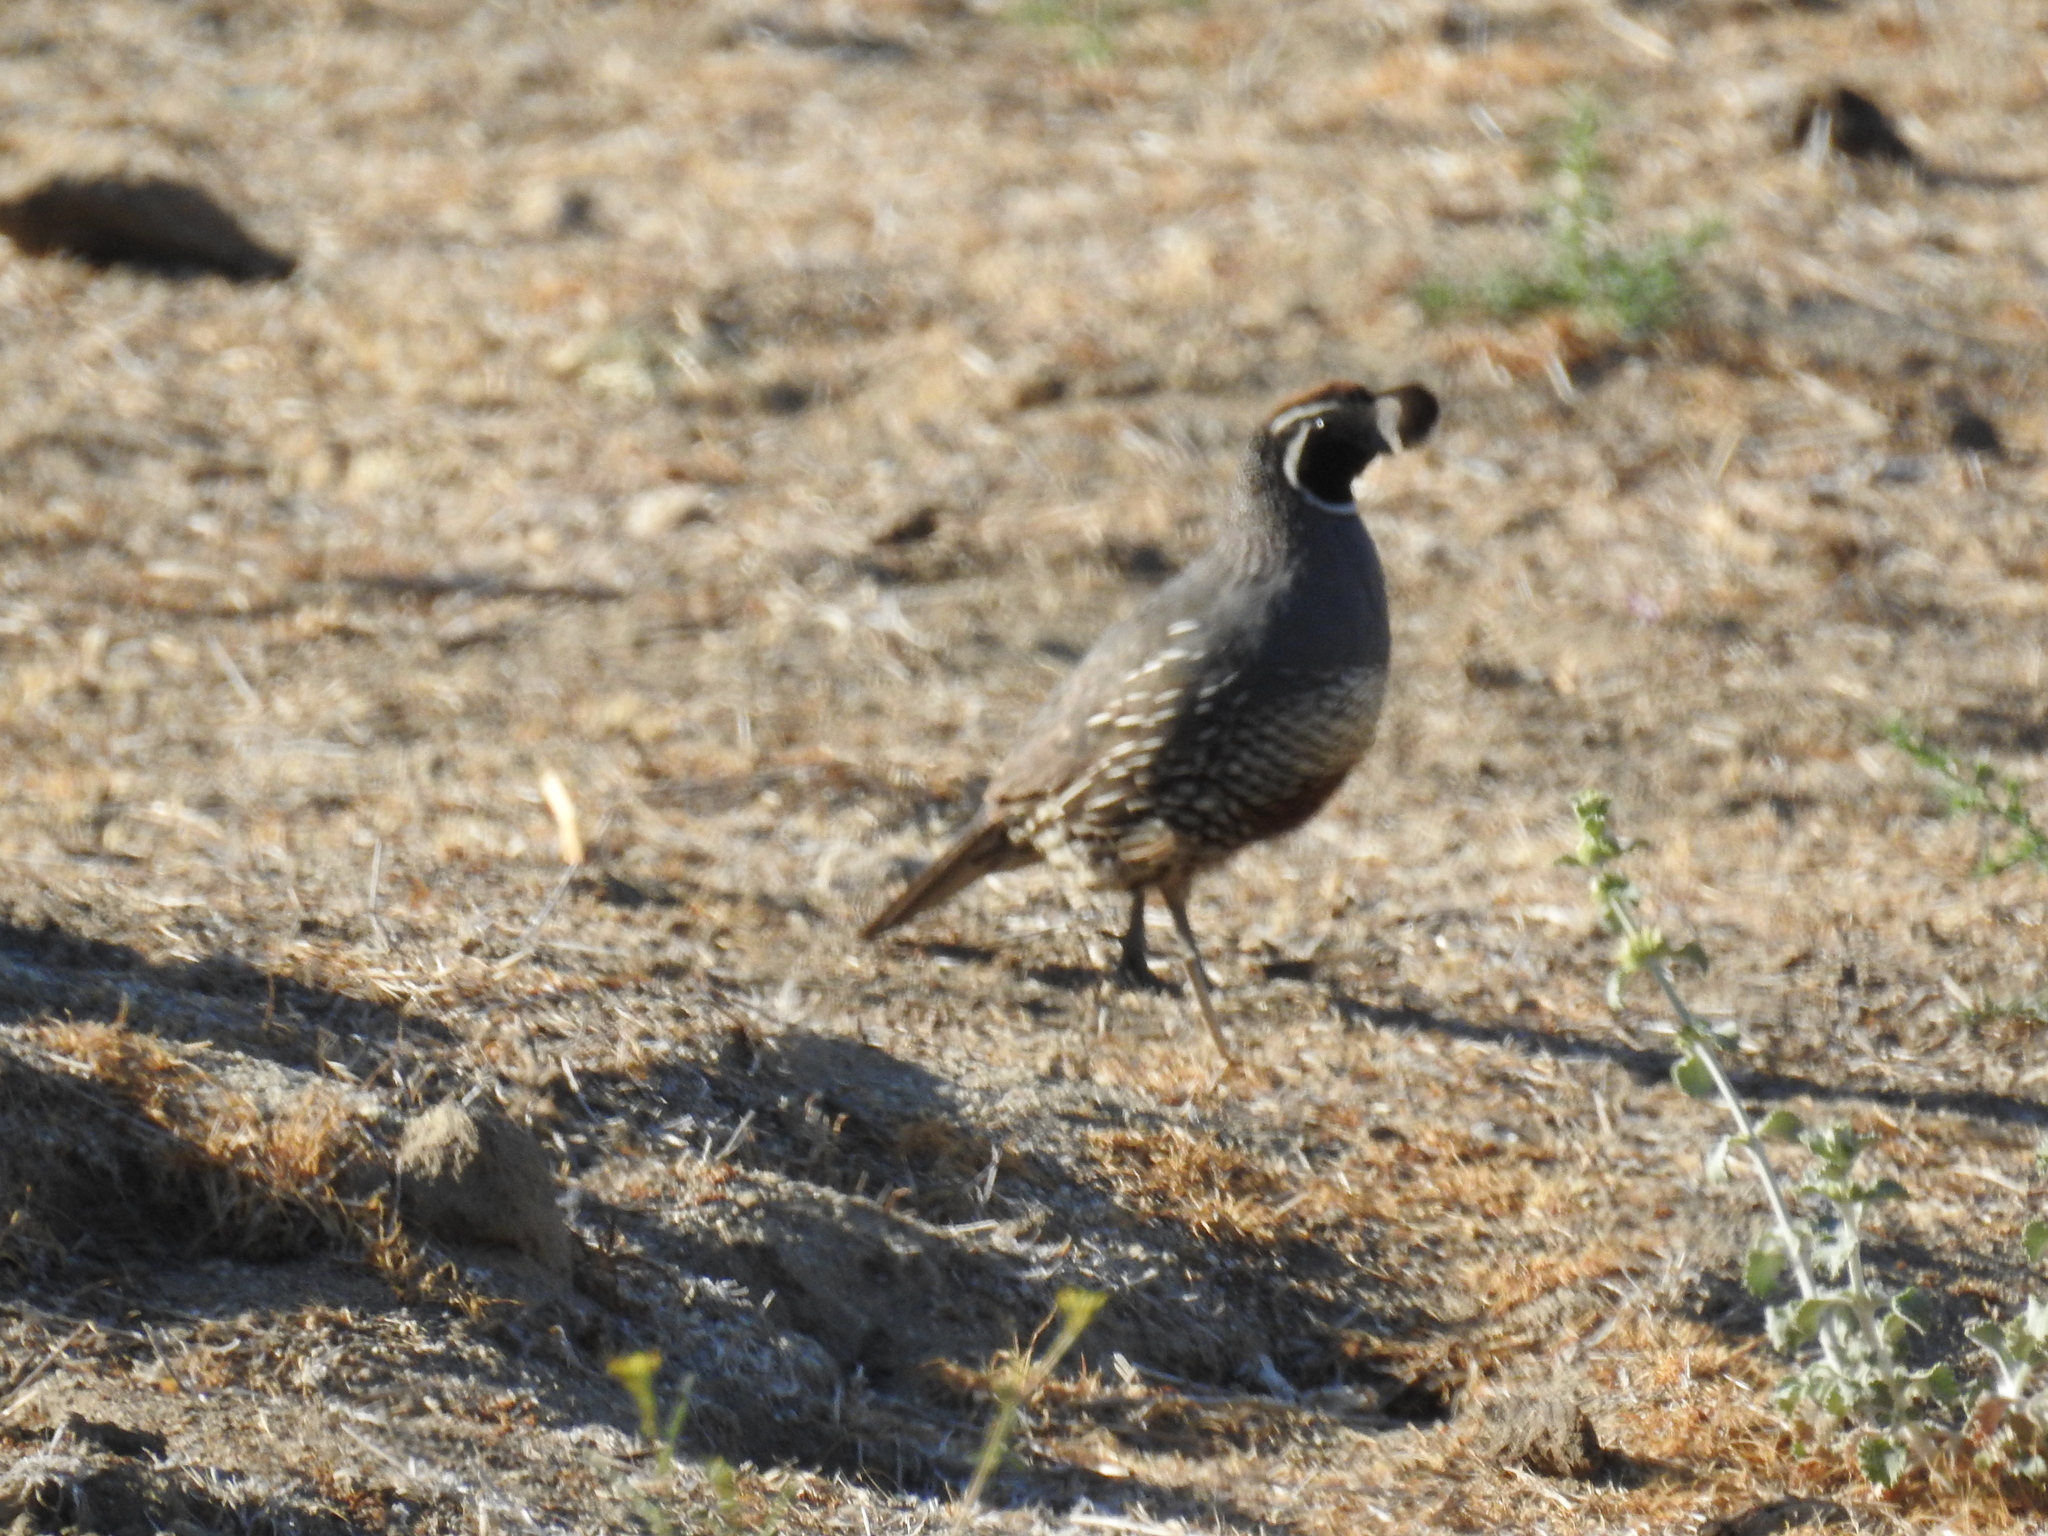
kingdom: Animalia
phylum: Chordata
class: Aves
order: Galliformes
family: Odontophoridae
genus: Callipepla
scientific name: Callipepla californica
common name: California quail
